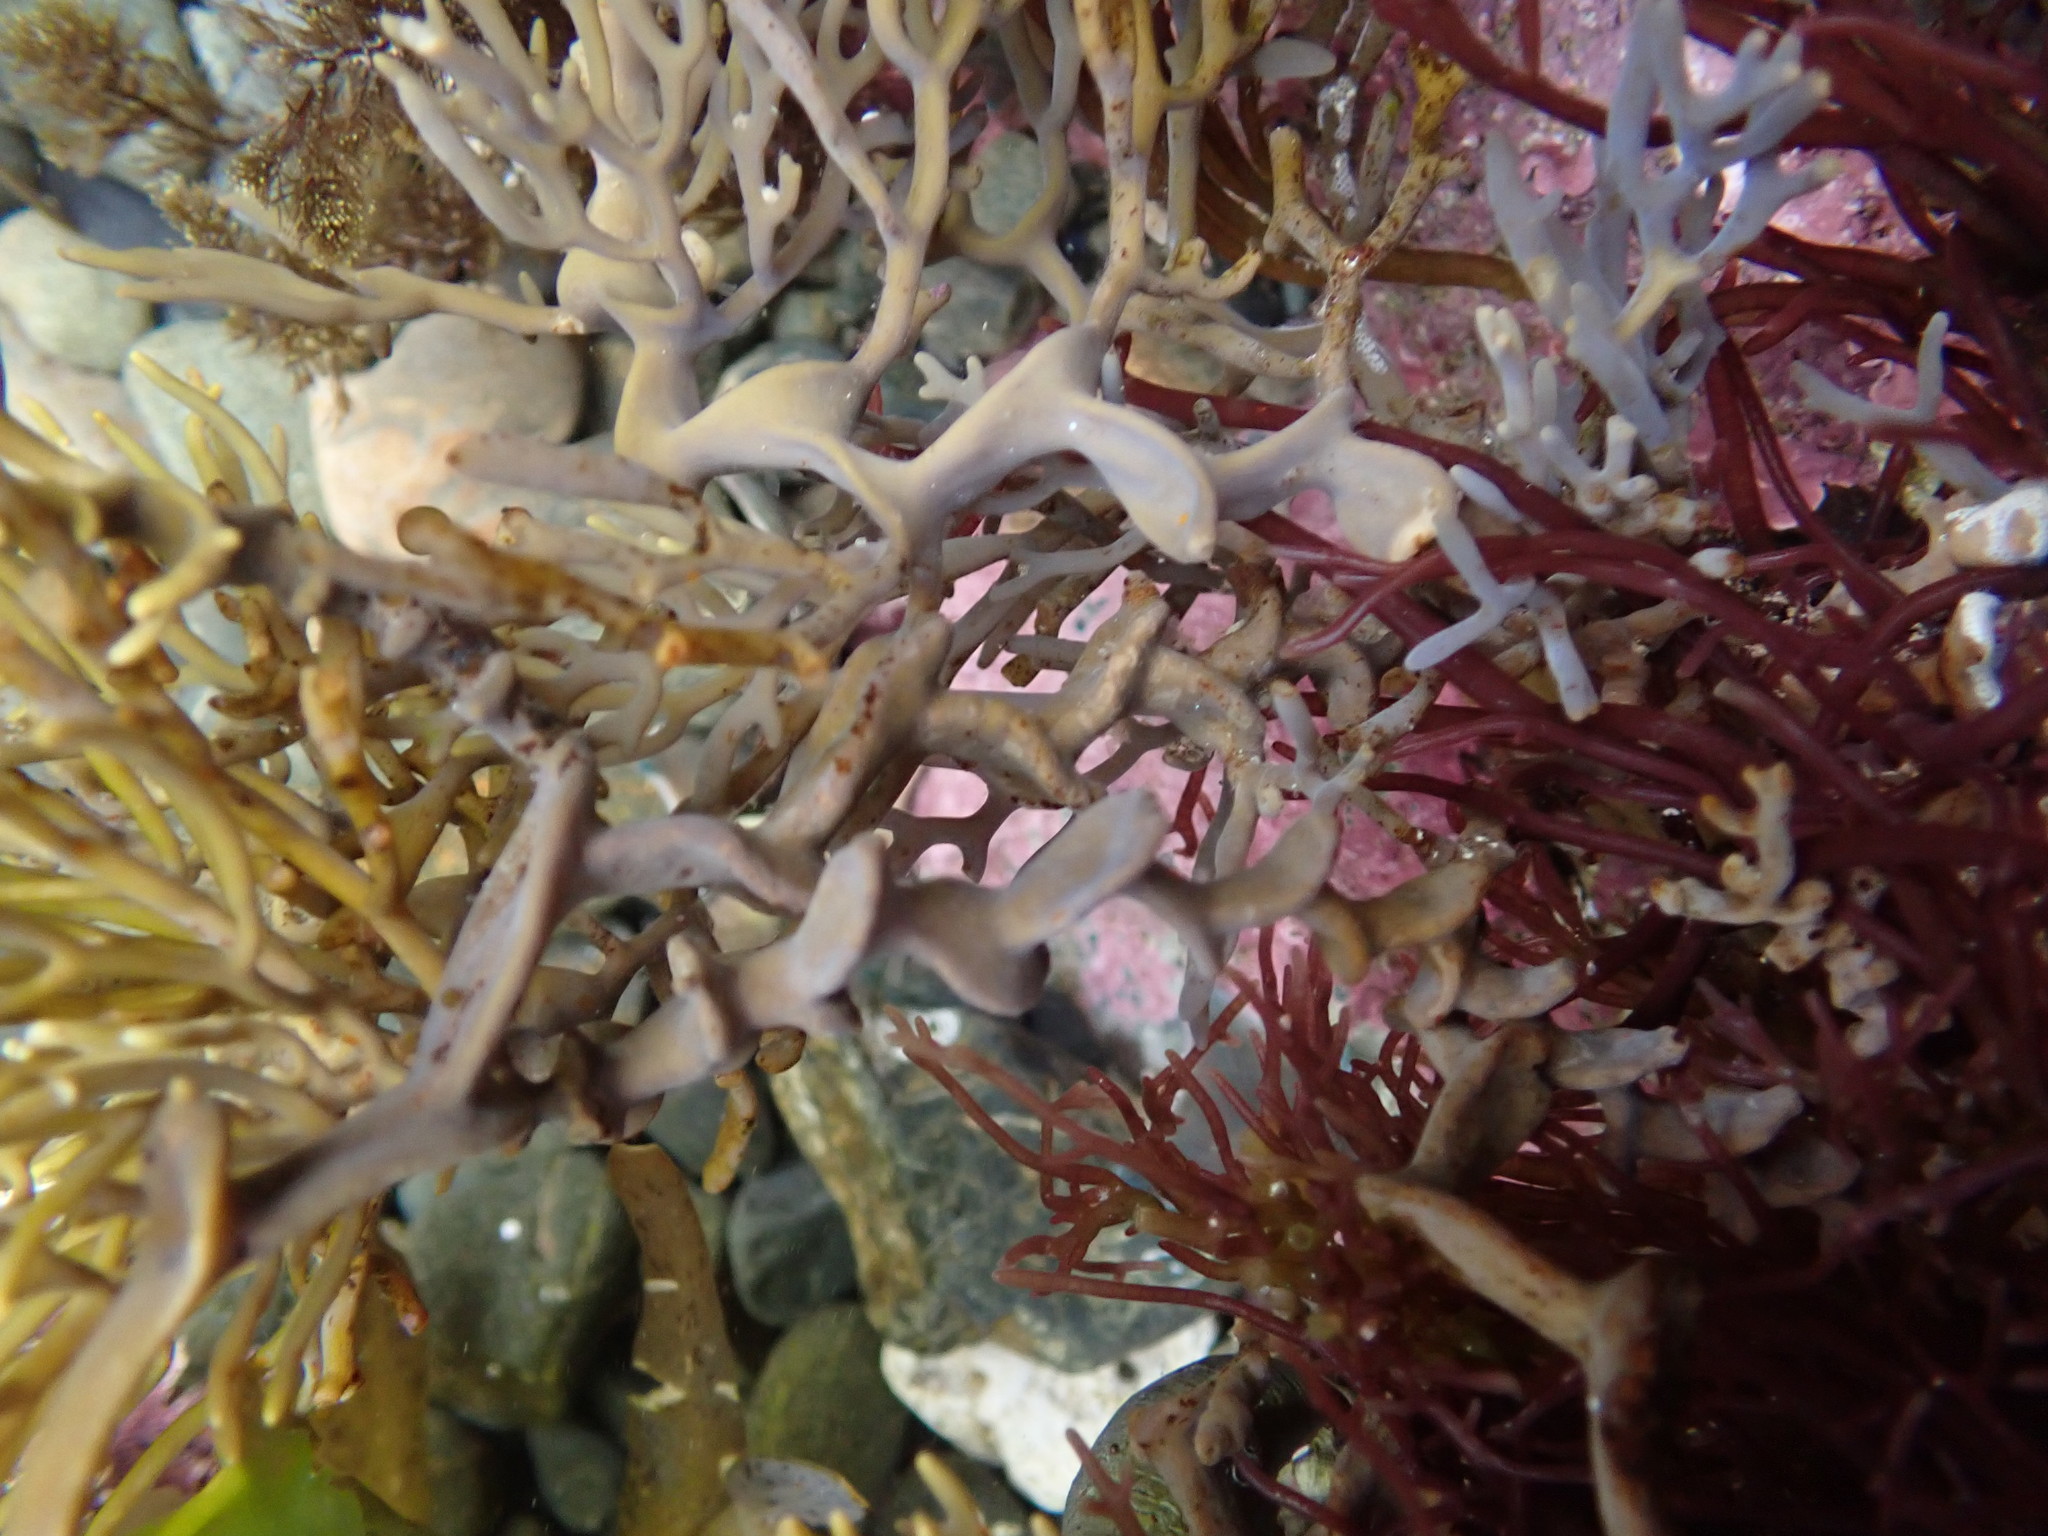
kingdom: Chromista
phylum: Ochrophyta
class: Phaeophyceae
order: Fucales
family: Sargassaceae
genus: Cystophora
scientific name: Cystophora retroflexa
